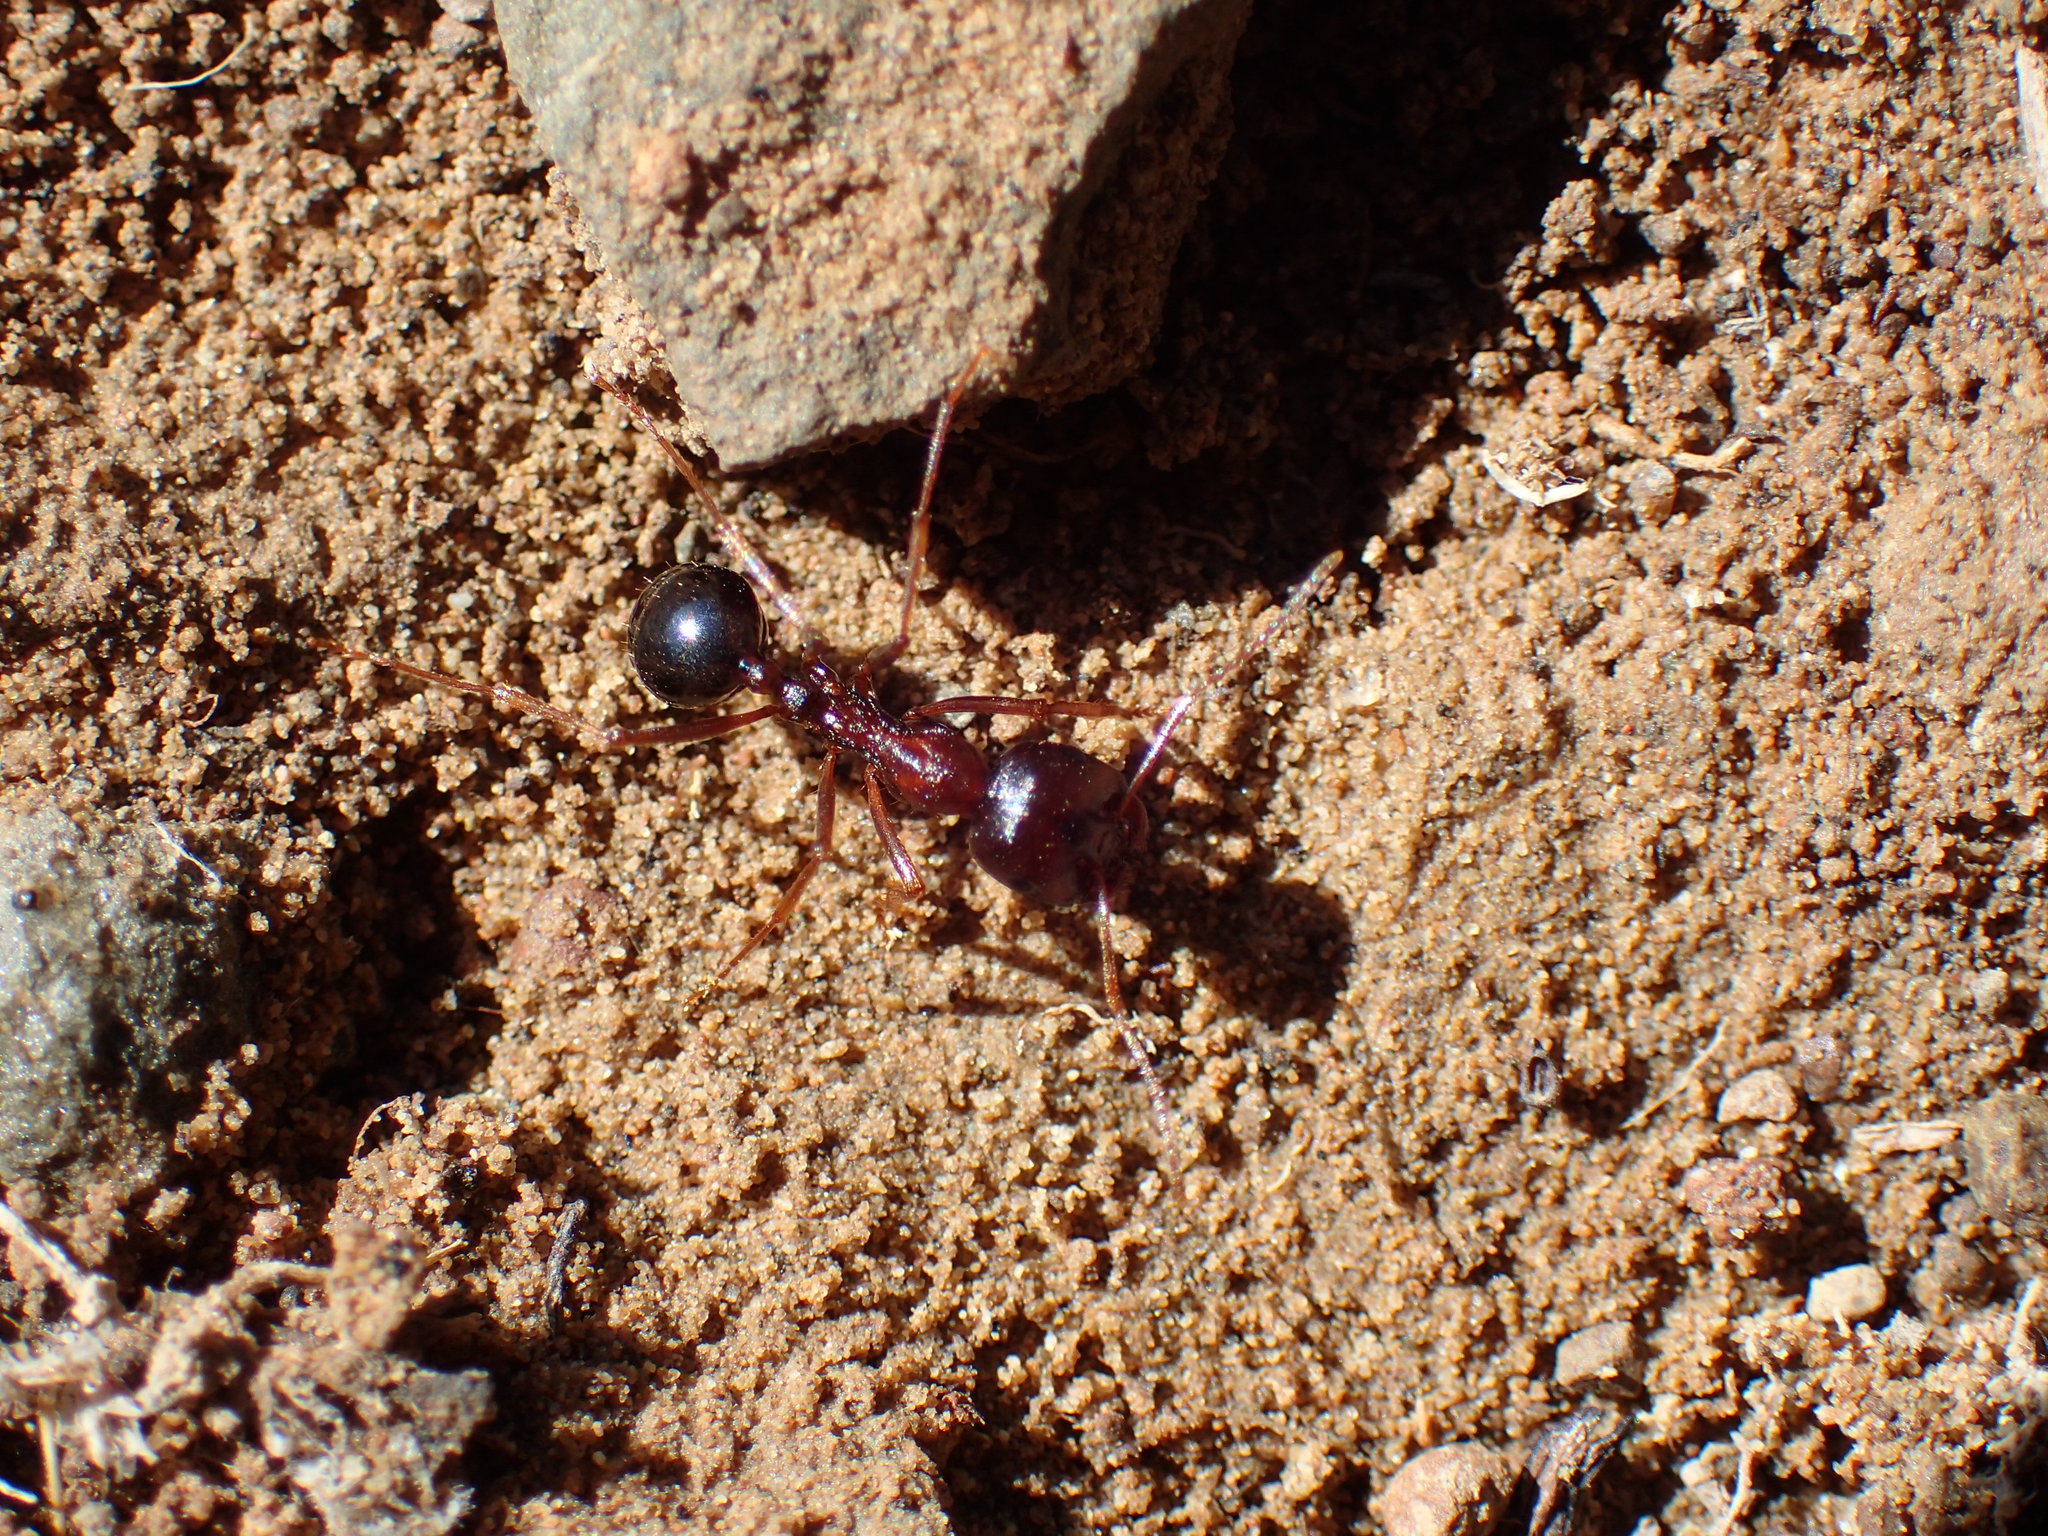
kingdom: Animalia
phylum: Arthropoda
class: Insecta
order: Hymenoptera
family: Formicidae
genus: Messor
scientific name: Messor capensis
